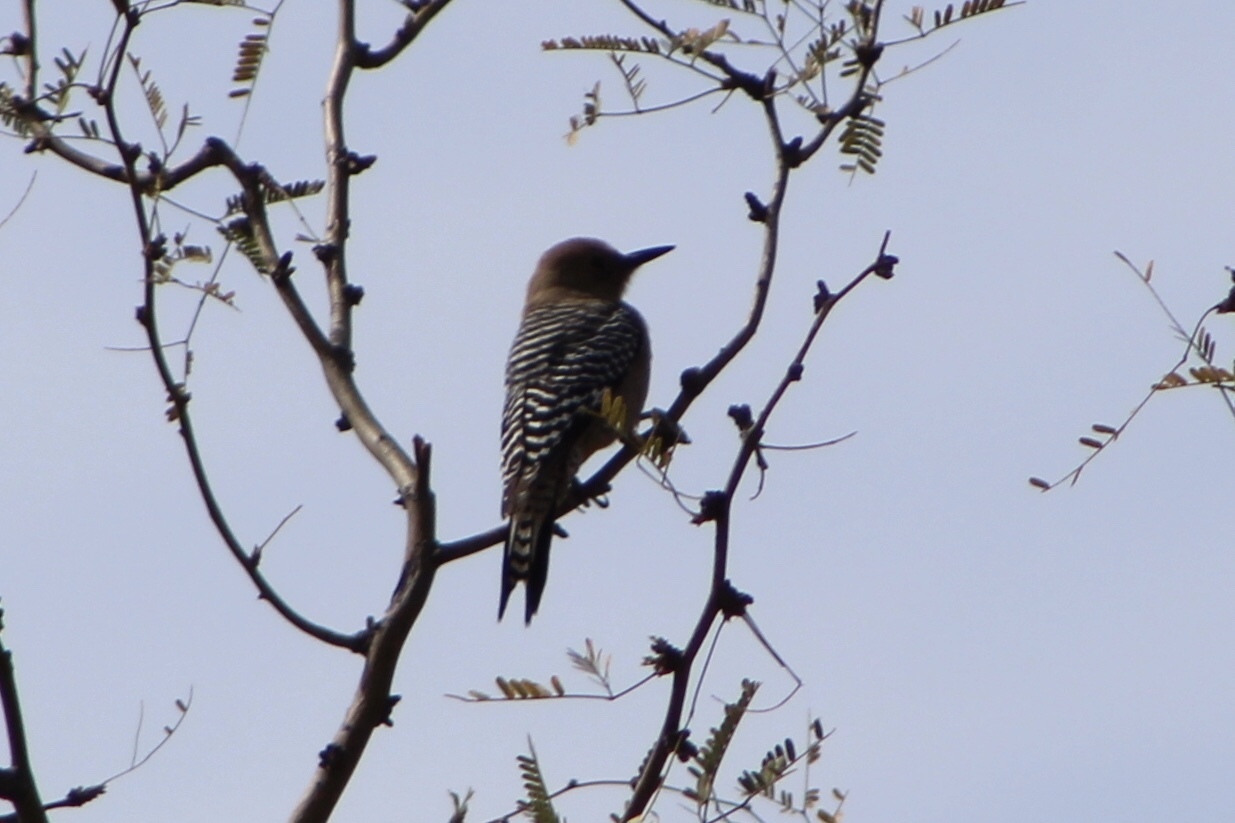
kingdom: Animalia
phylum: Chordata
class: Aves
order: Piciformes
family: Picidae
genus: Melanerpes
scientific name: Melanerpes uropygialis
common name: Gila woodpecker
